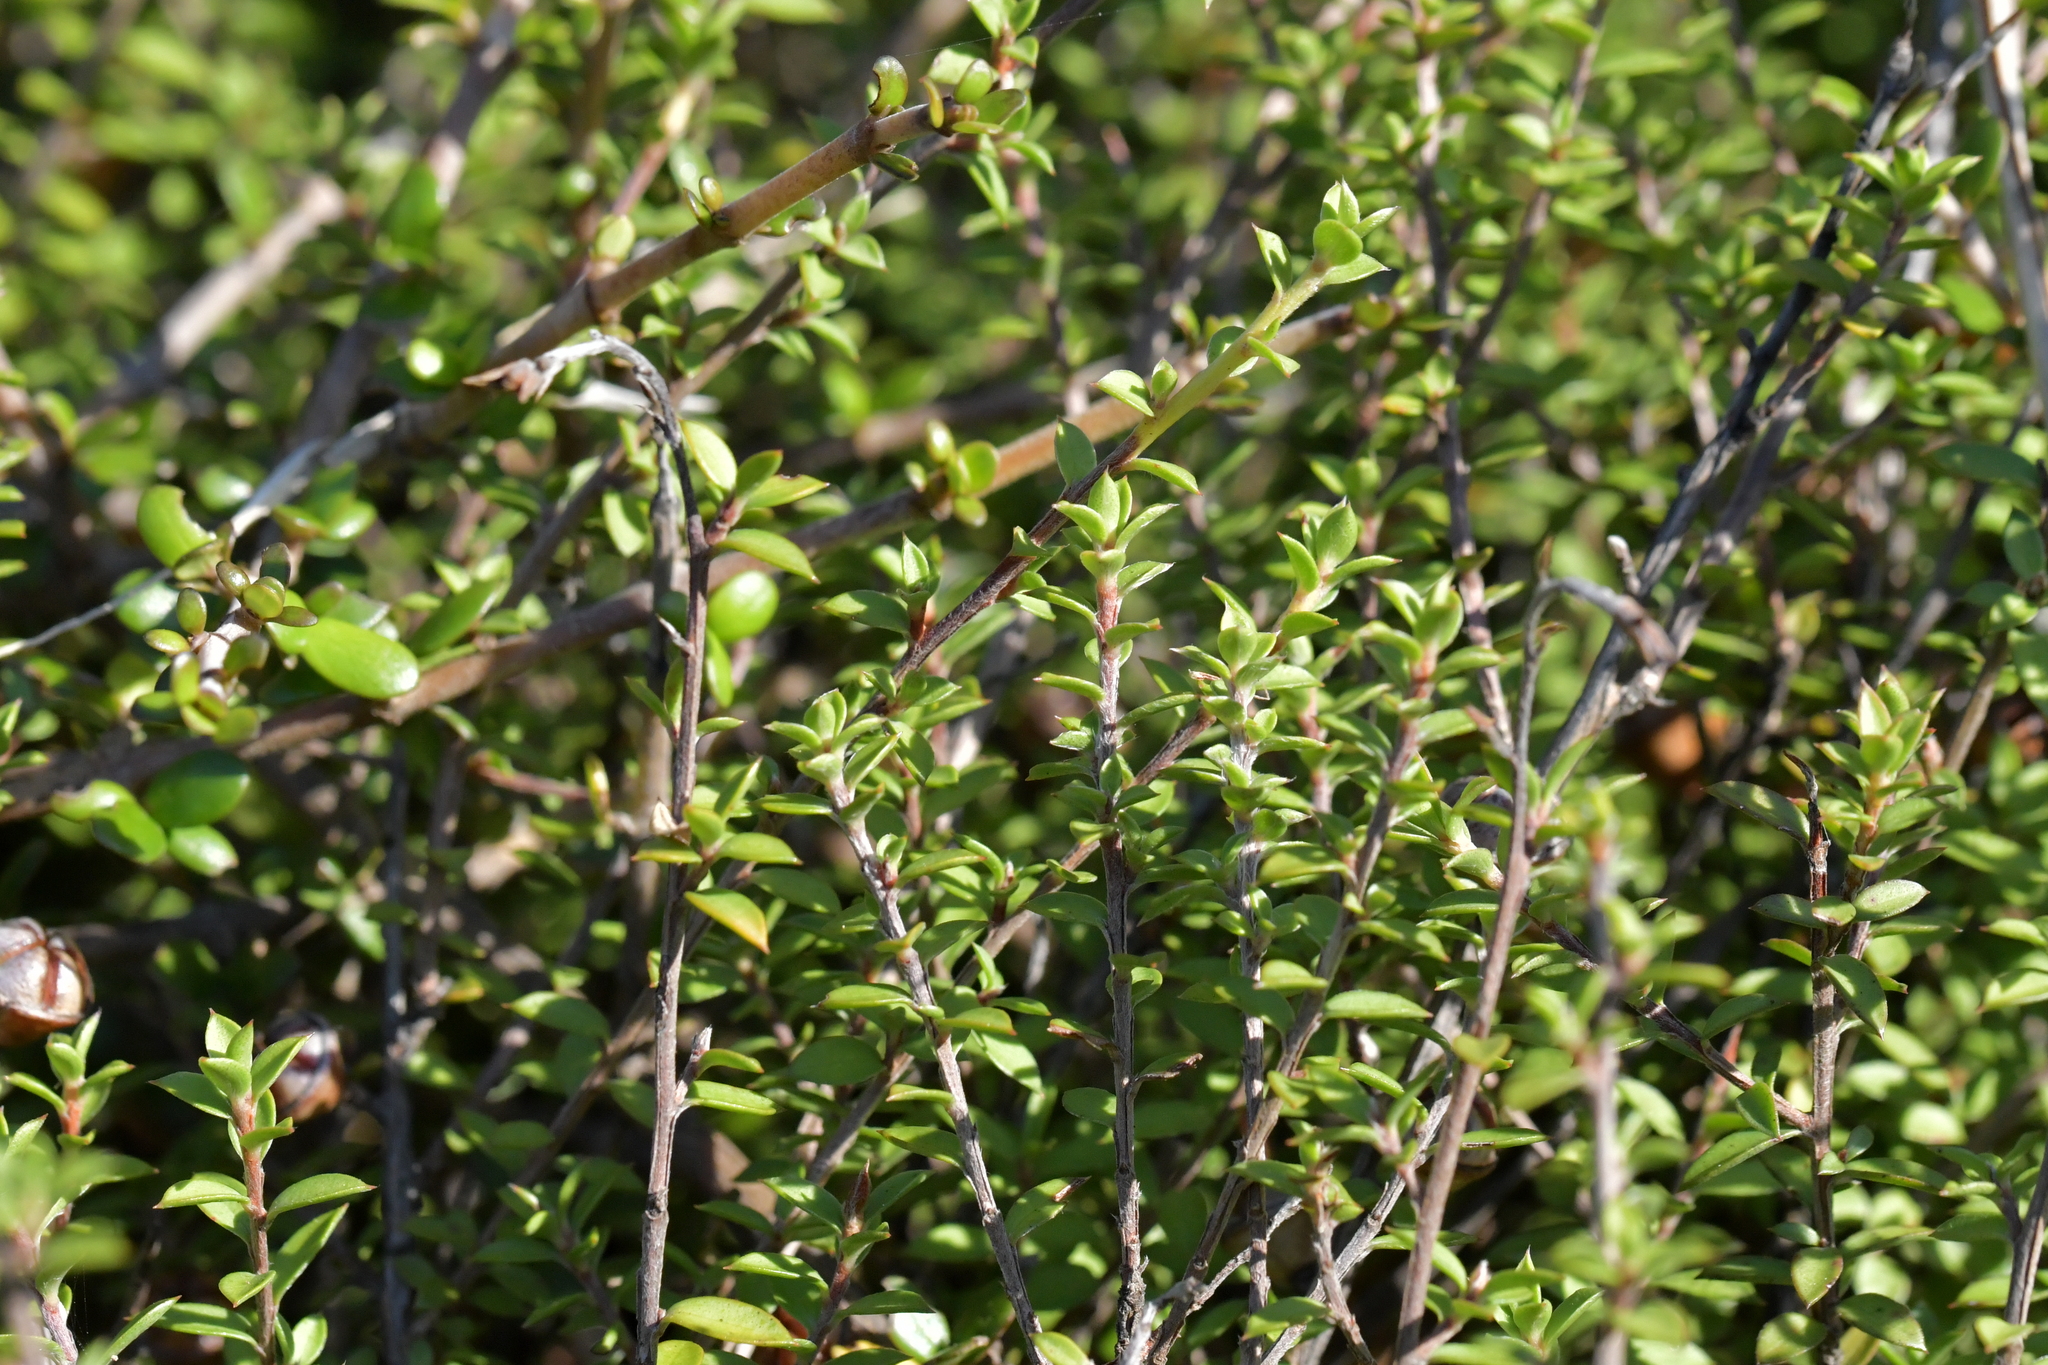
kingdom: Plantae
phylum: Tracheophyta
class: Magnoliopsida
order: Myrtales
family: Myrtaceae
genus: Leptospermum
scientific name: Leptospermum scoparium
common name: Broom tea-tree
